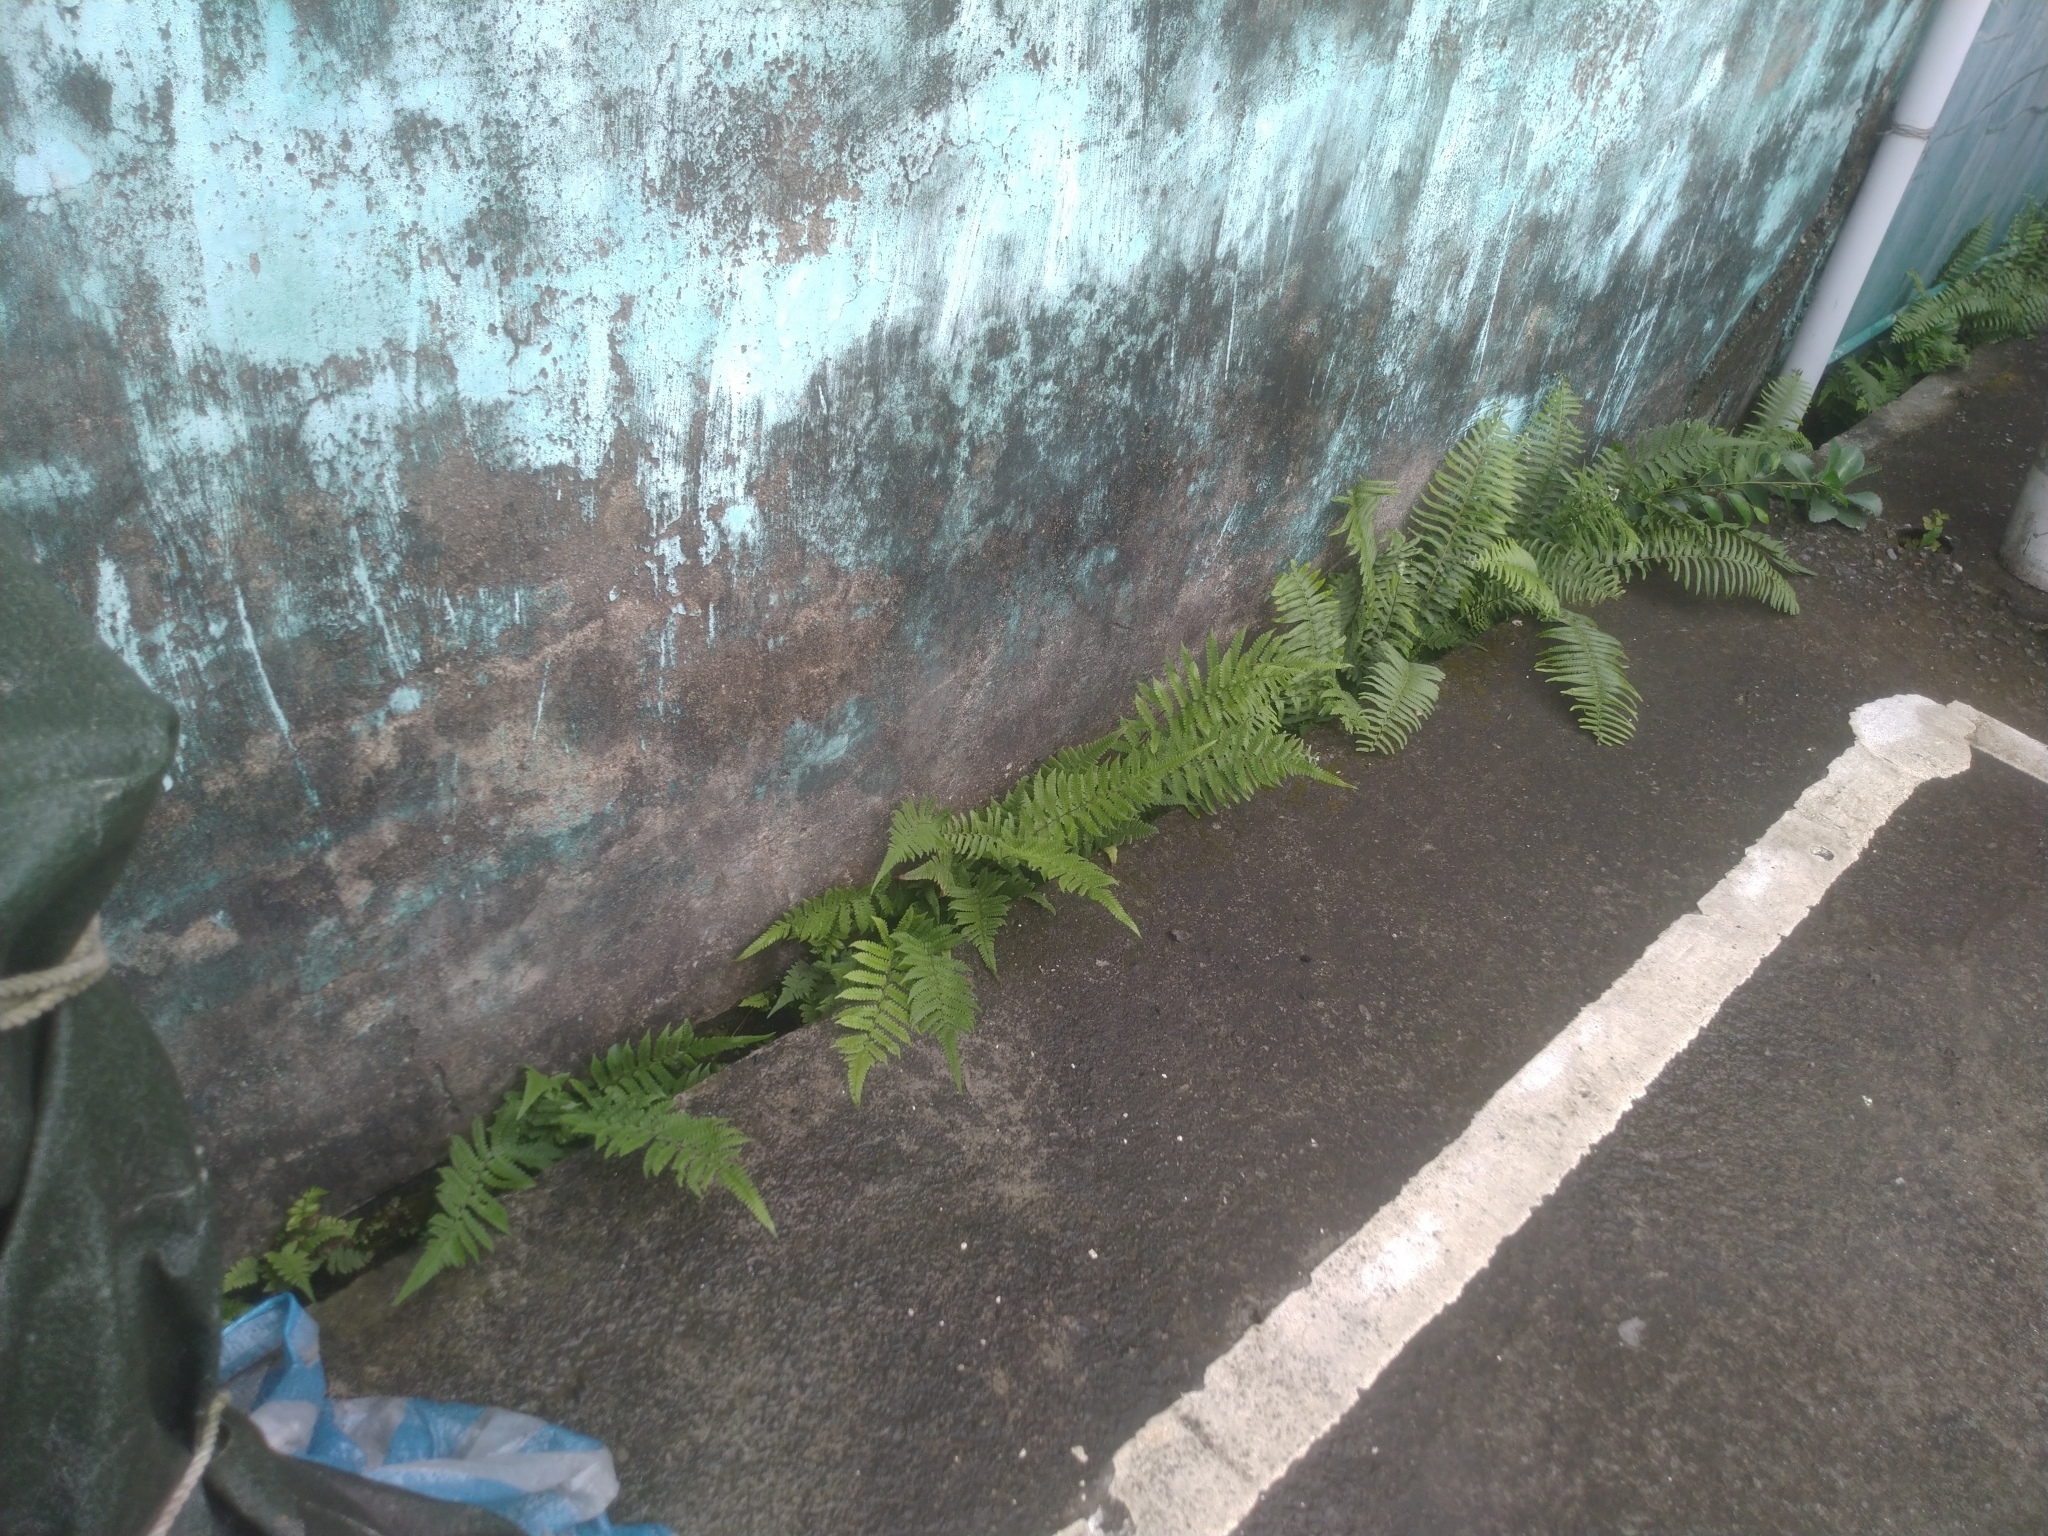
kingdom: Plantae
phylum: Tracheophyta
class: Polypodiopsida
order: Polypodiales
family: Thelypteridaceae
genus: Christella
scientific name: Christella dentata
